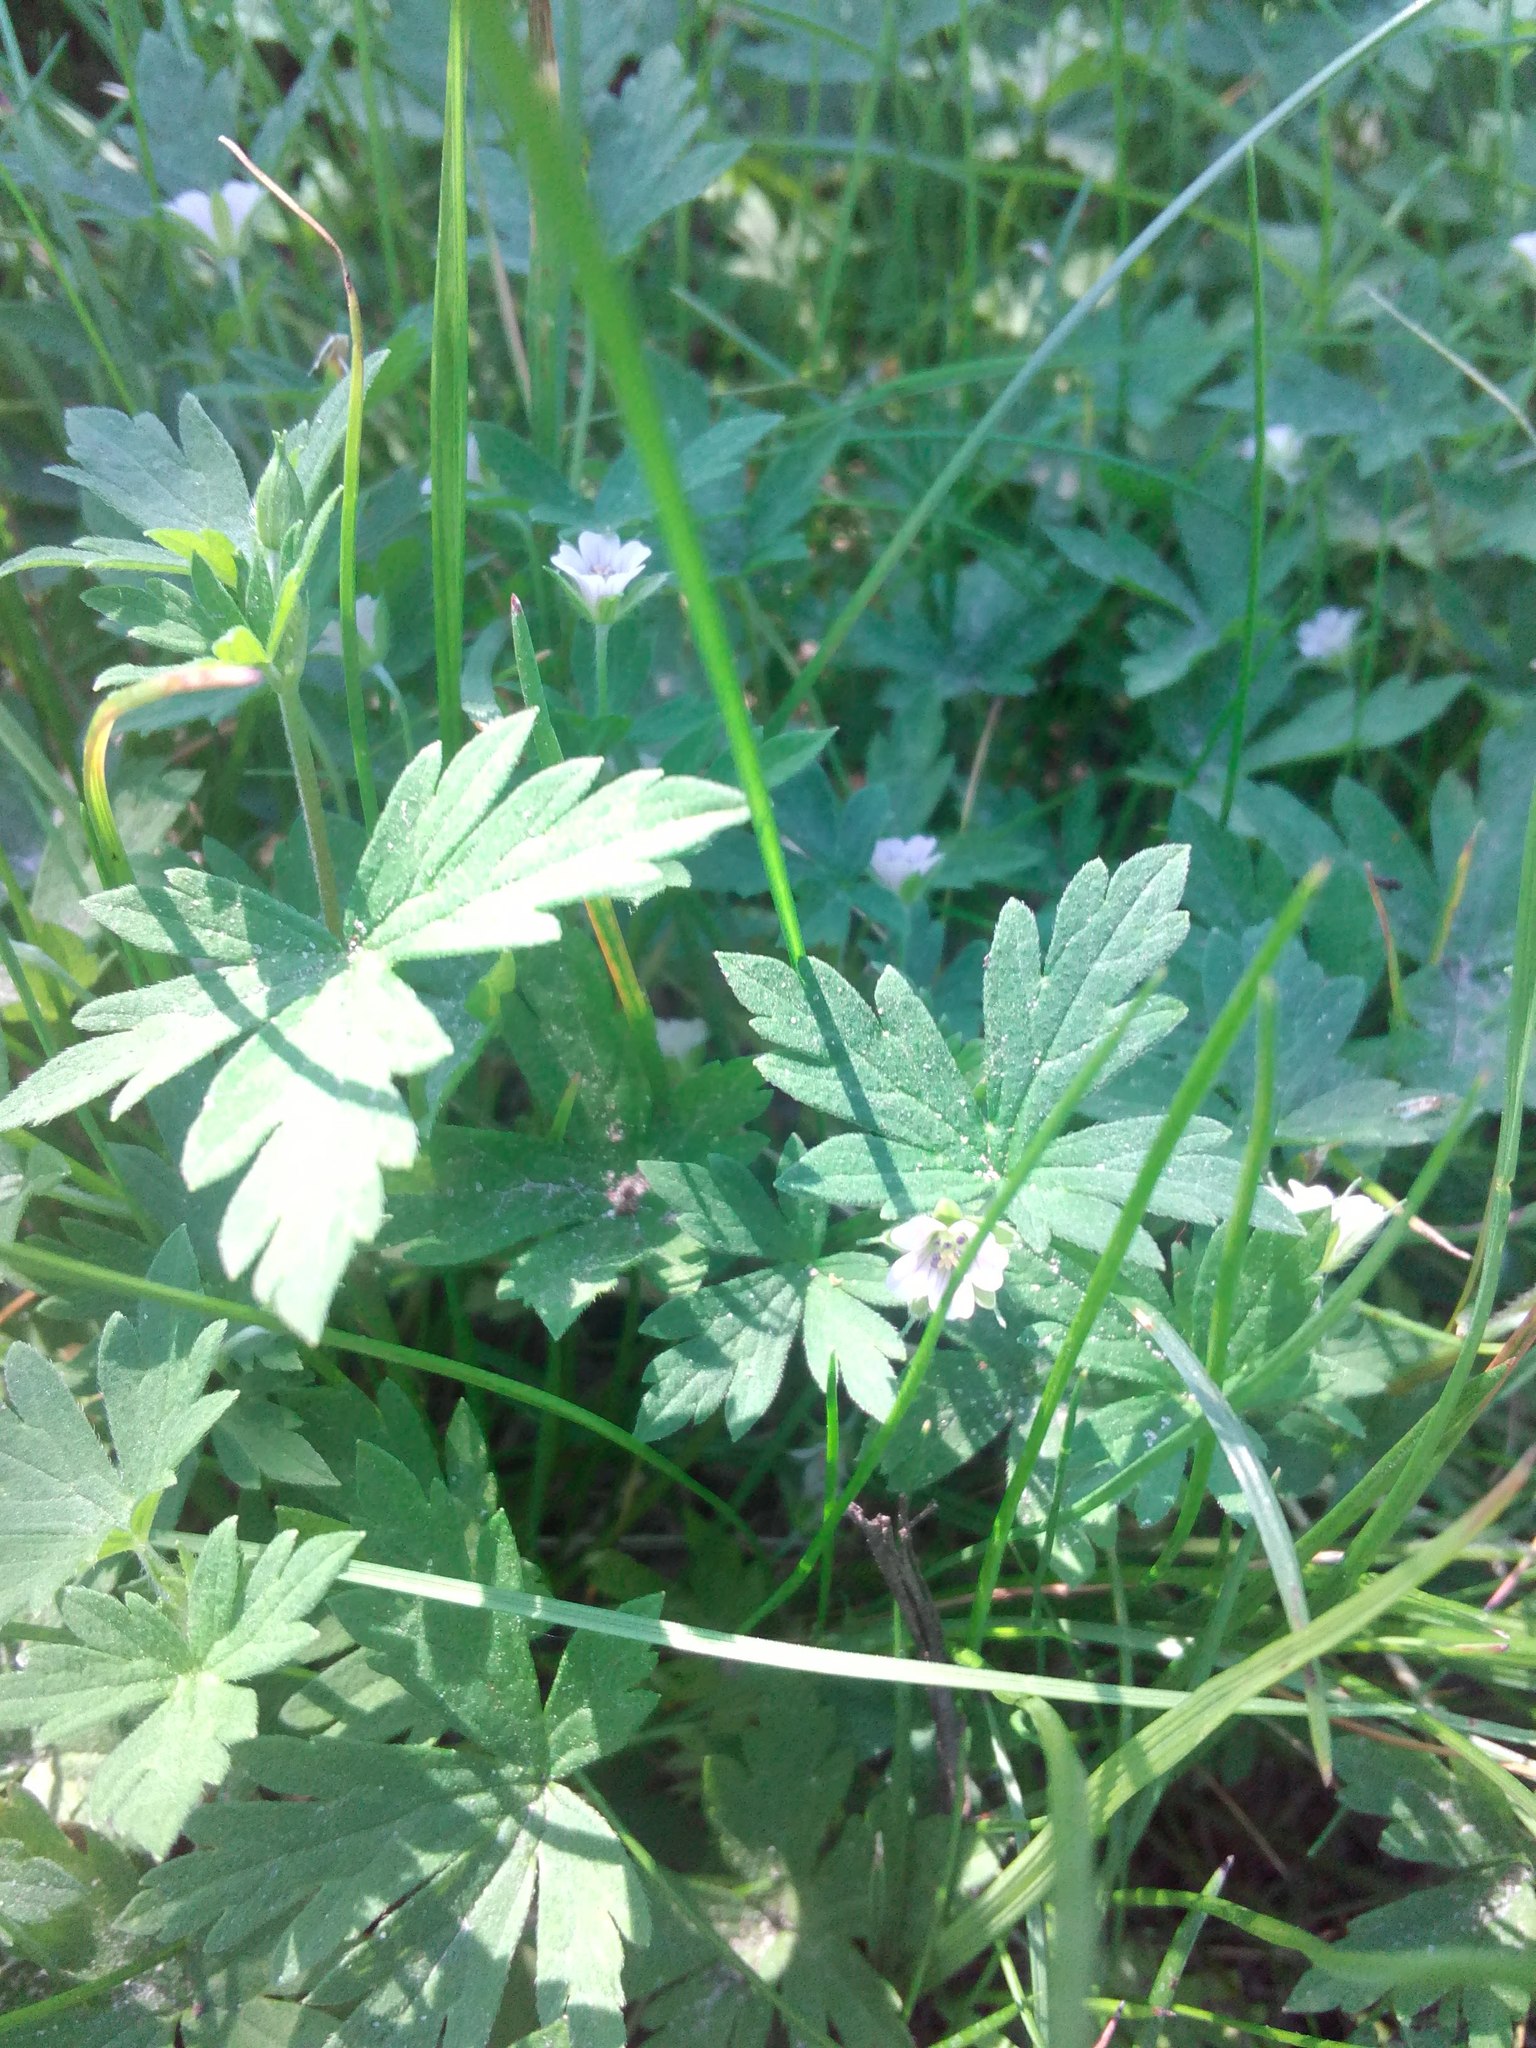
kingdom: Plantae
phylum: Tracheophyta
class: Magnoliopsida
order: Geraniales
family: Geraniaceae
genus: Geranium
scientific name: Geranium sibiricum
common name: Siberian crane's-bill
